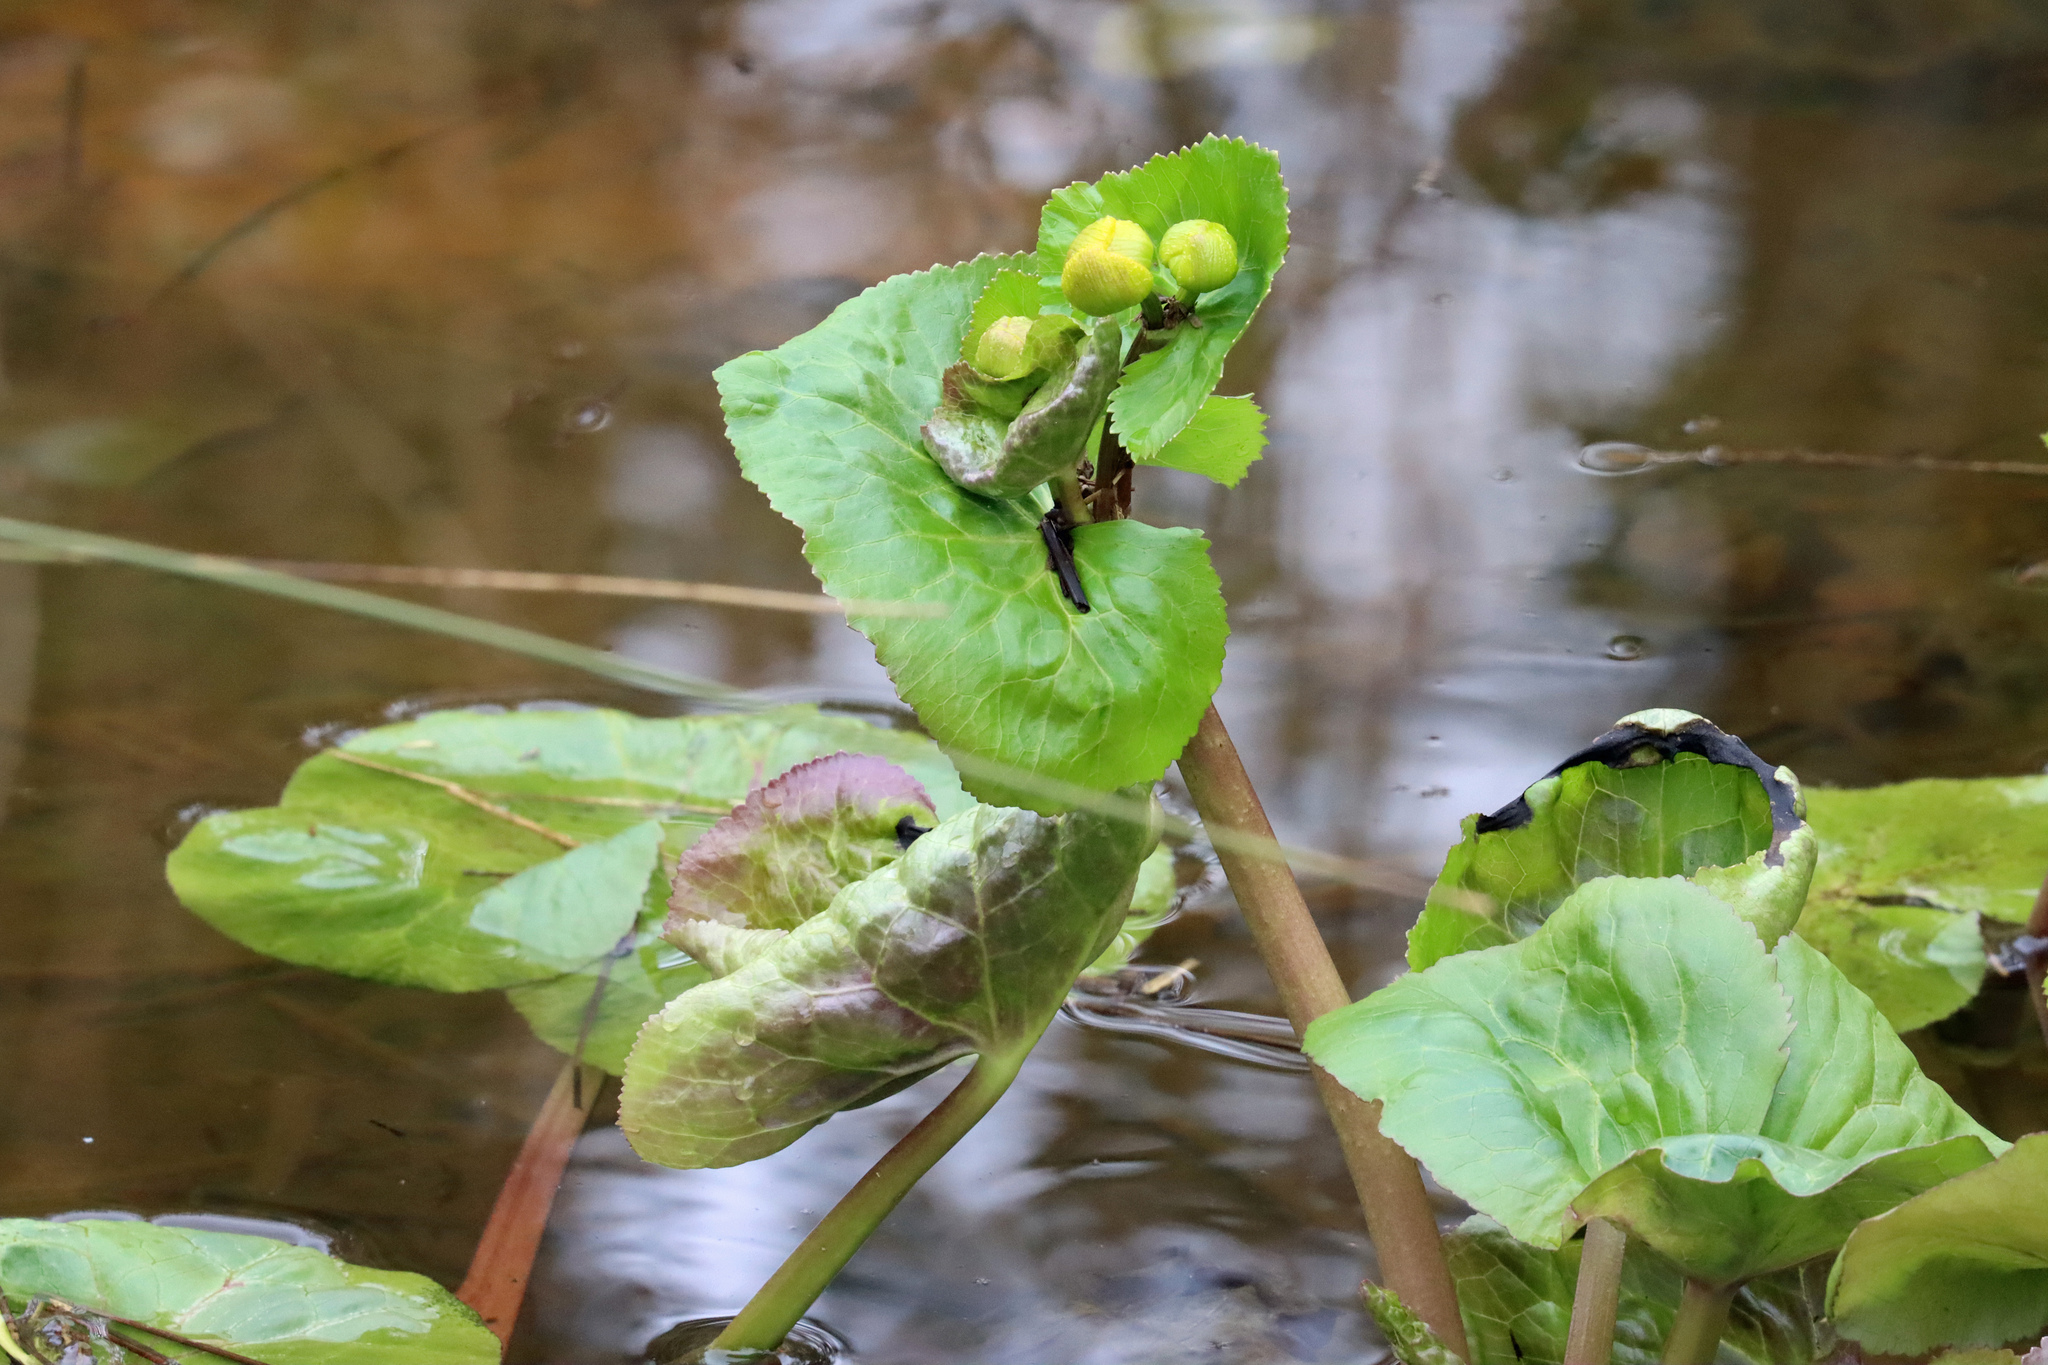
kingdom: Plantae
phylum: Tracheophyta
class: Magnoliopsida
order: Ranunculales
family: Ranunculaceae
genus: Caltha
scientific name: Caltha palustris
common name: Marsh marigold
